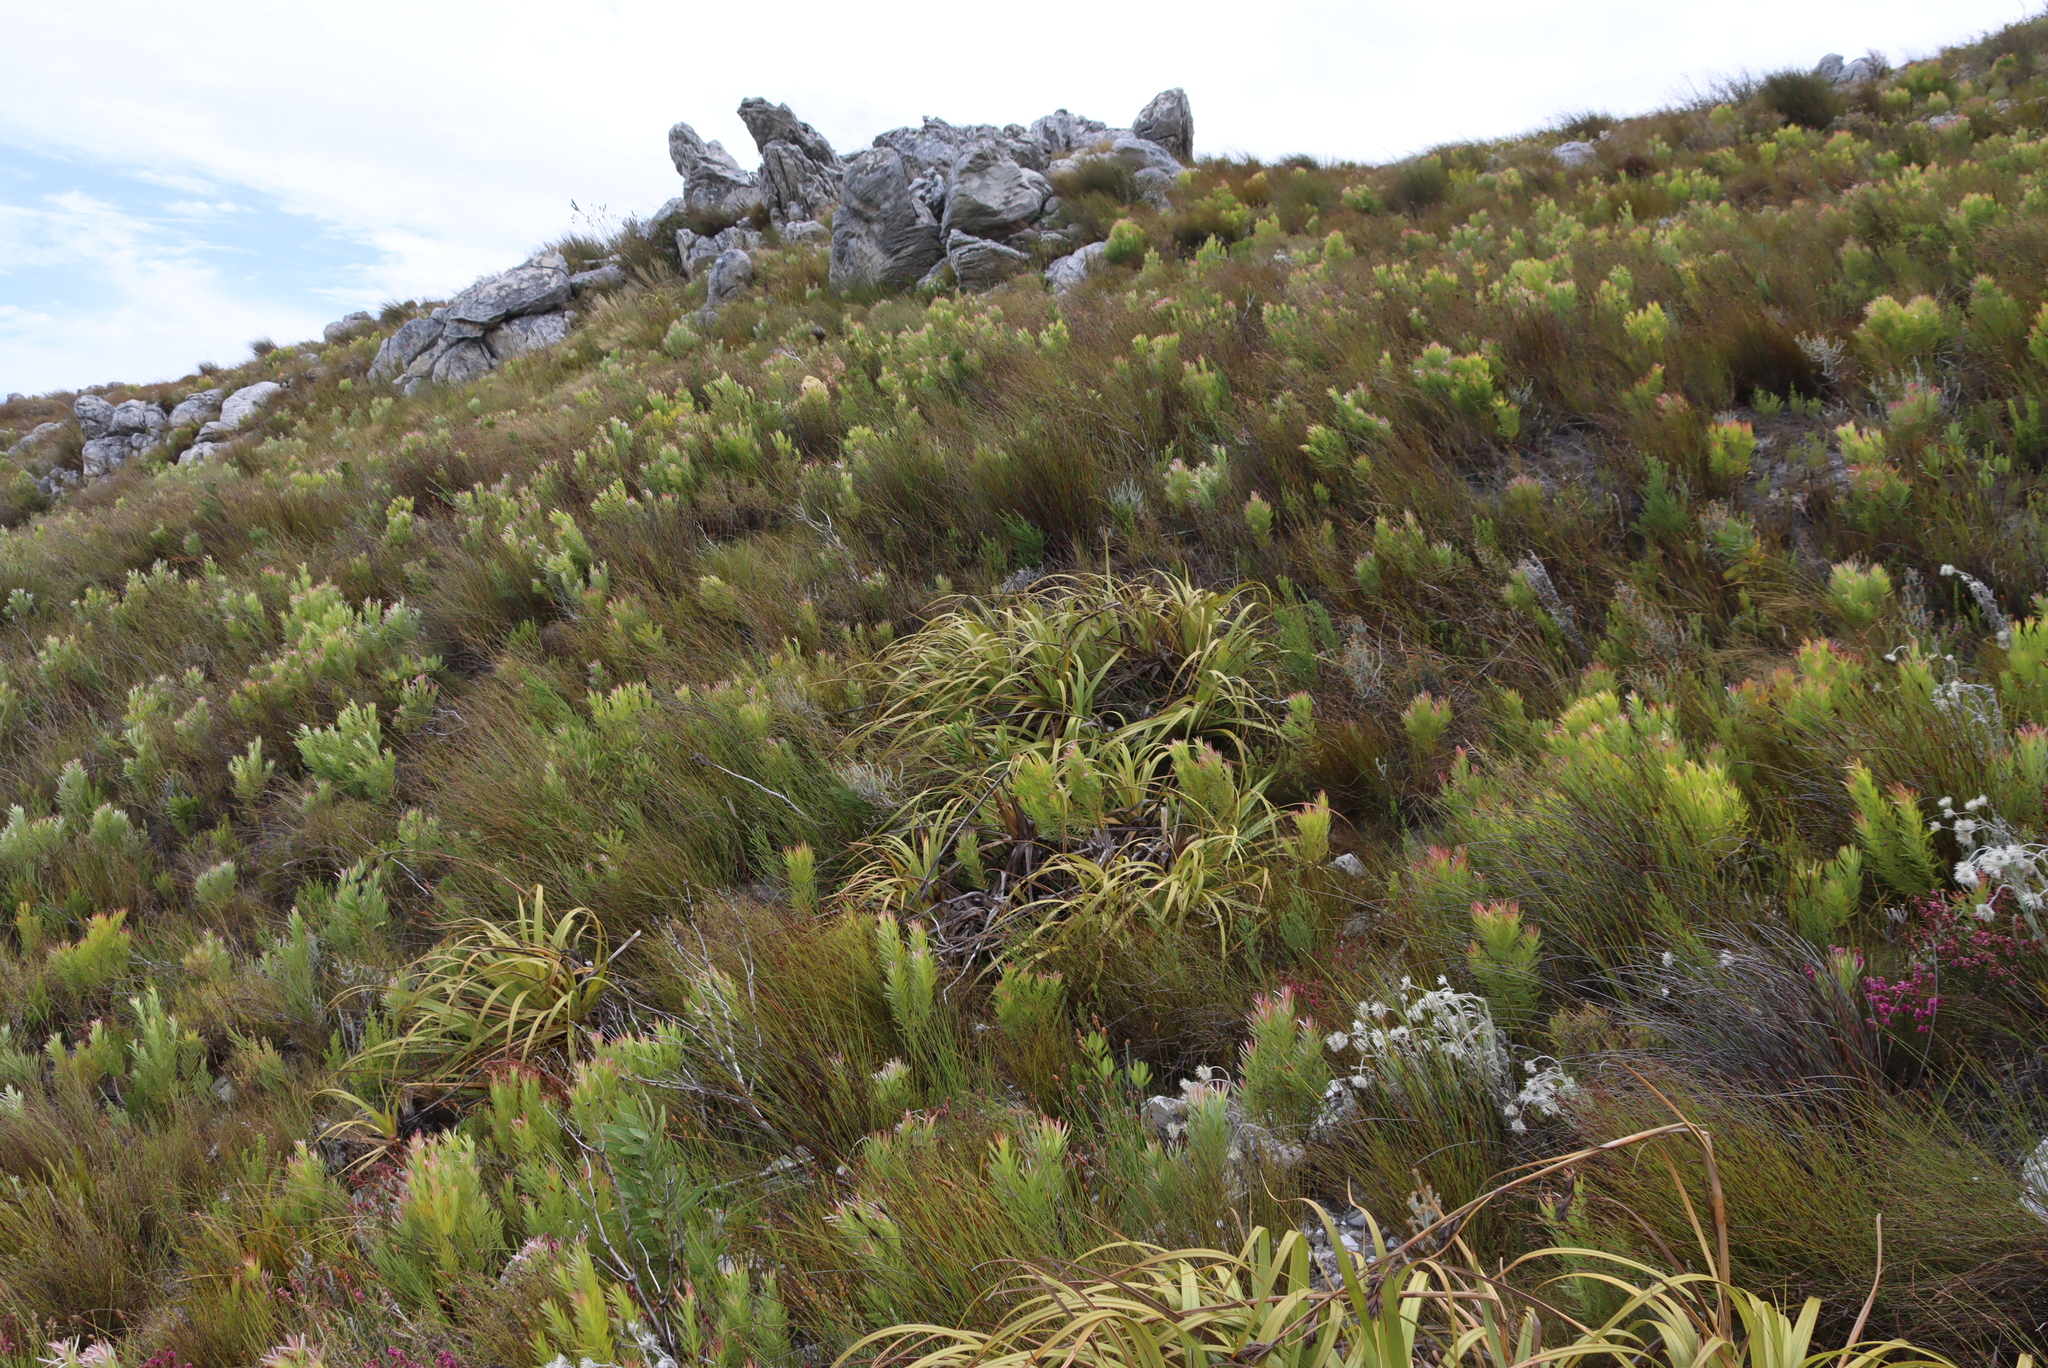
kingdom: Plantae
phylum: Tracheophyta
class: Liliopsida
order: Poales
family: Cyperaceae
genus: Tetraria
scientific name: Tetraria thermalis
